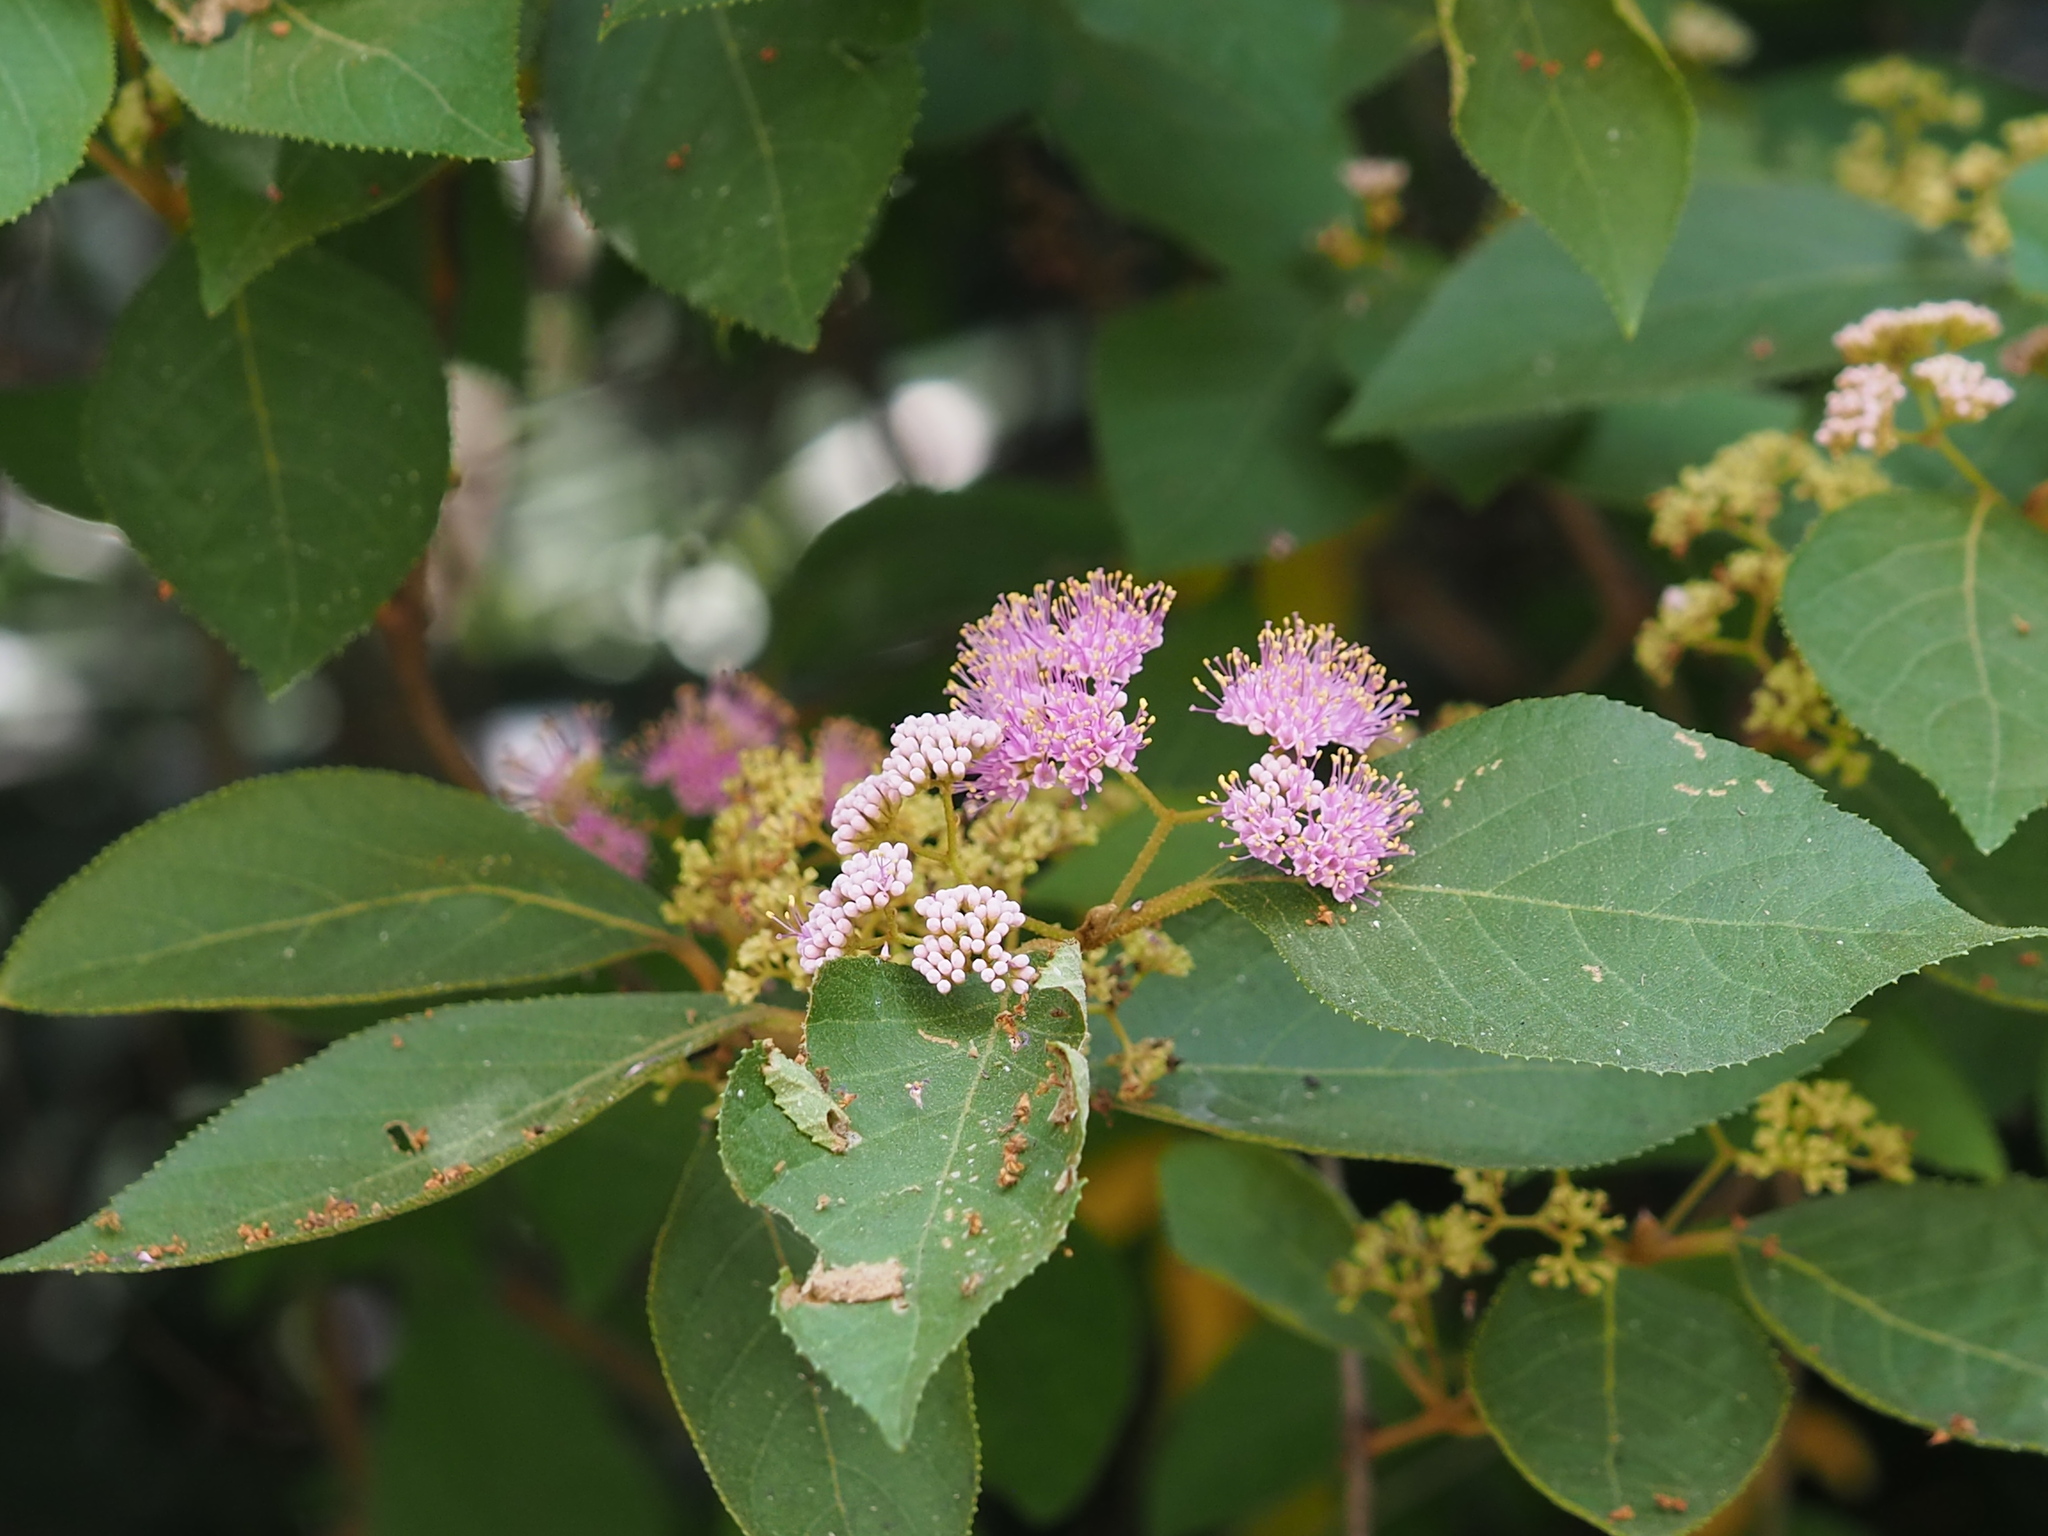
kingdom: Plantae
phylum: Tracheophyta
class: Magnoliopsida
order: Lamiales
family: Lamiaceae
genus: Callicarpa
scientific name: Callicarpa pedunculata
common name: Velvetleaf
